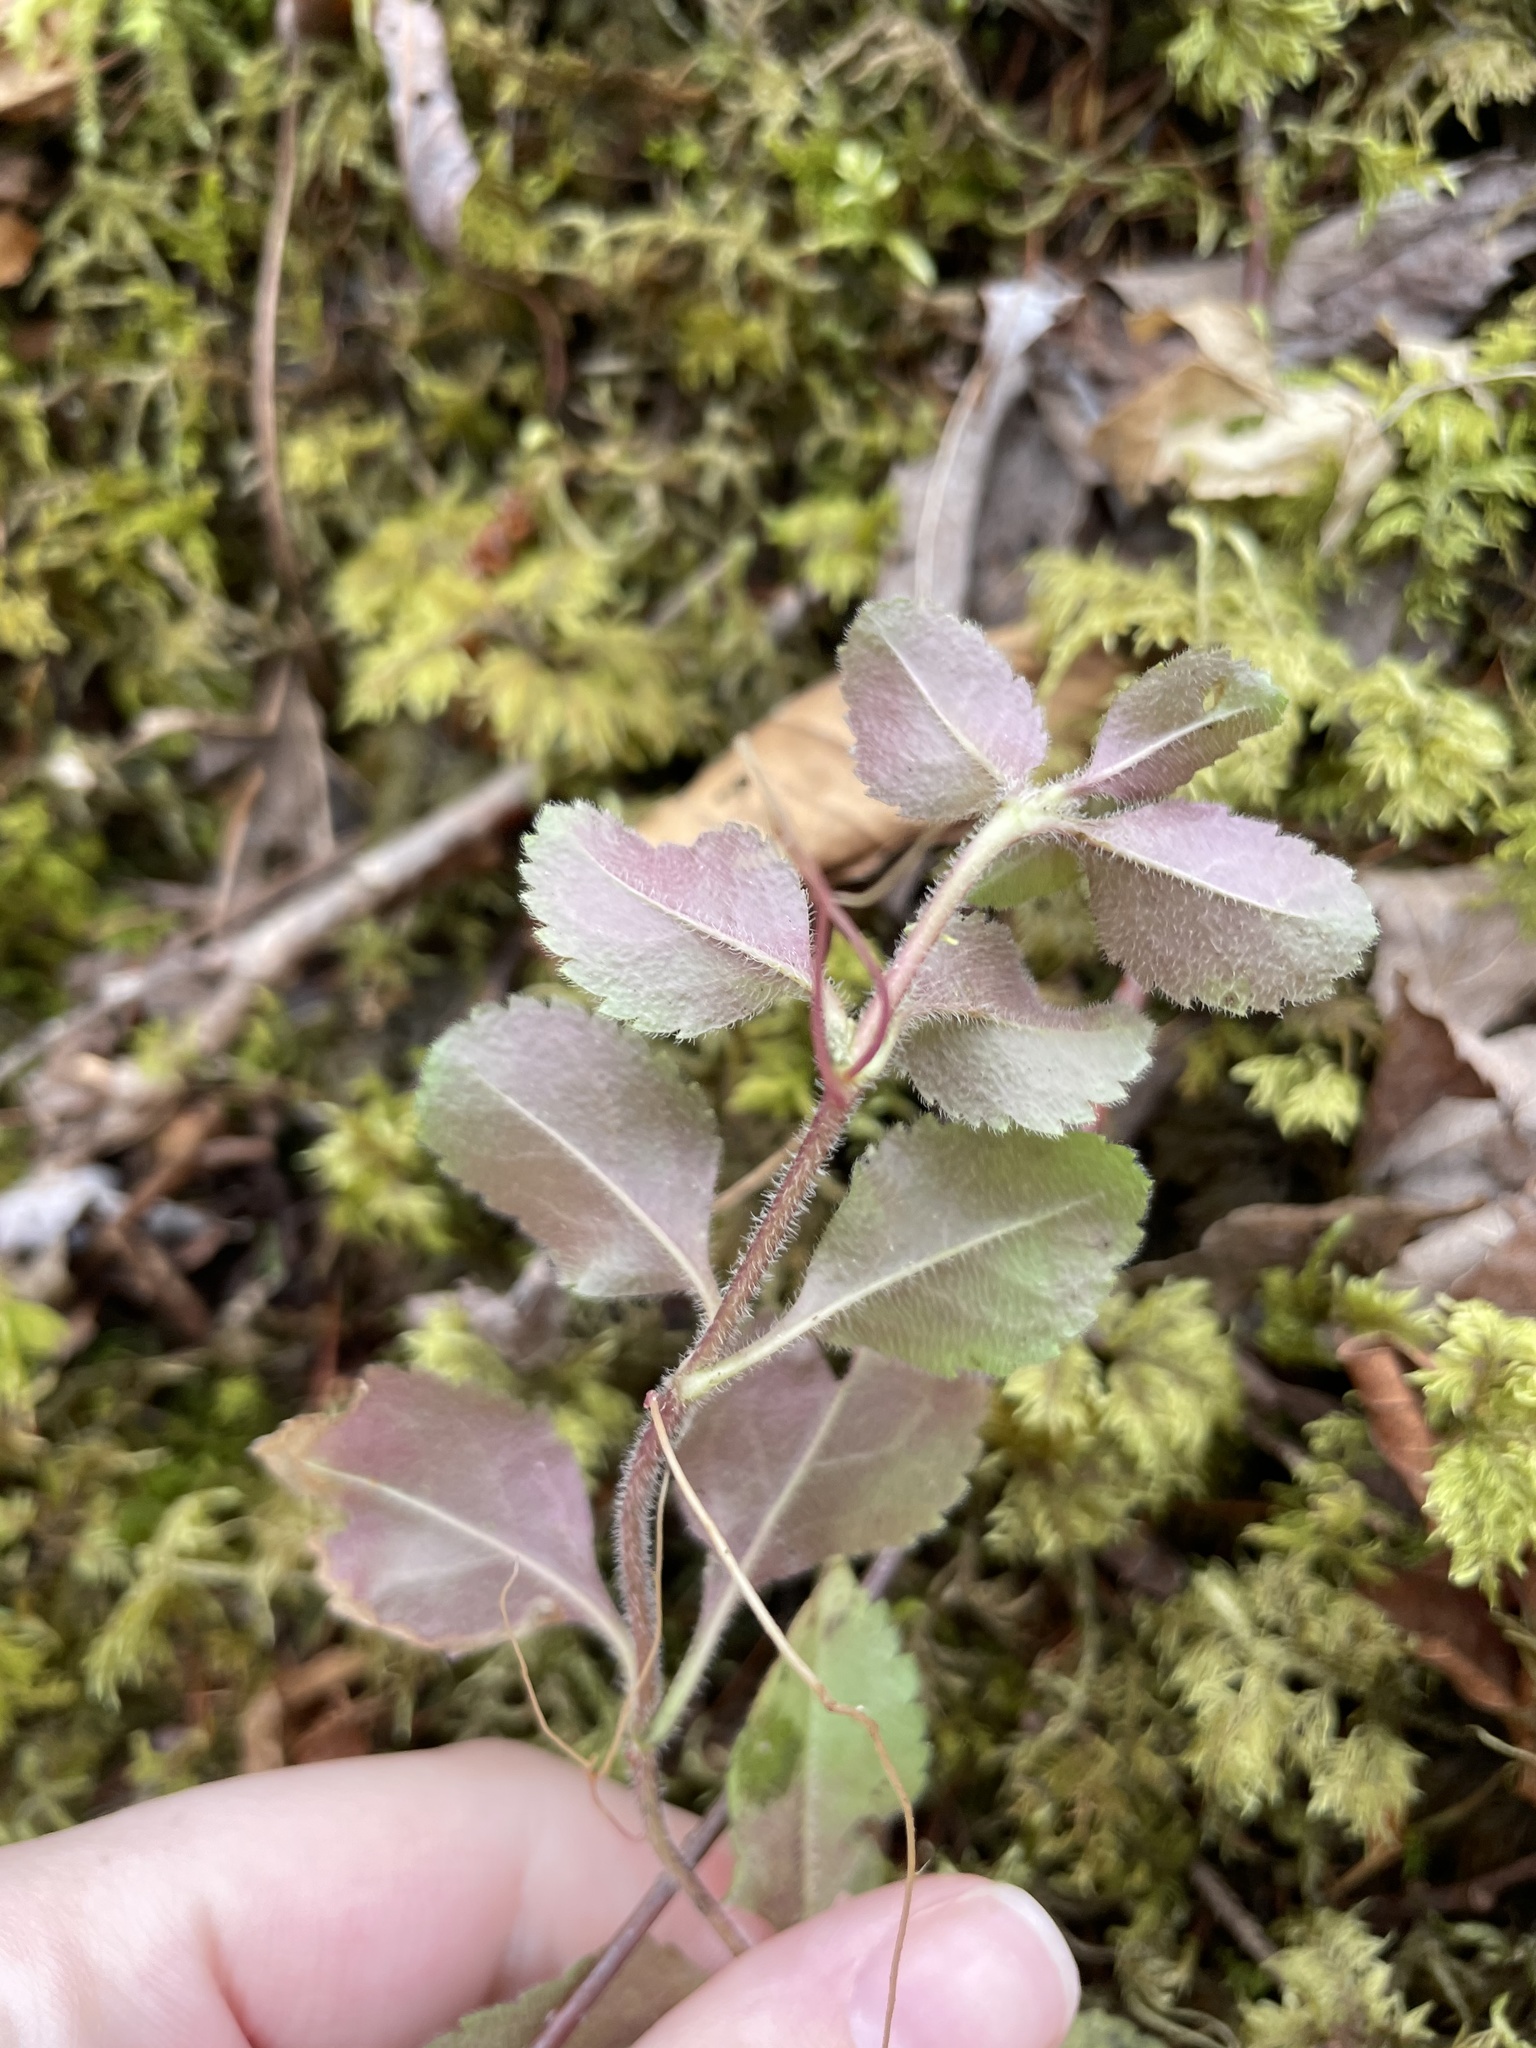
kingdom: Plantae
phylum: Tracheophyta
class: Magnoliopsida
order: Lamiales
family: Plantaginaceae
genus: Veronica
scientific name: Veronica officinalis
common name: Common speedwell
